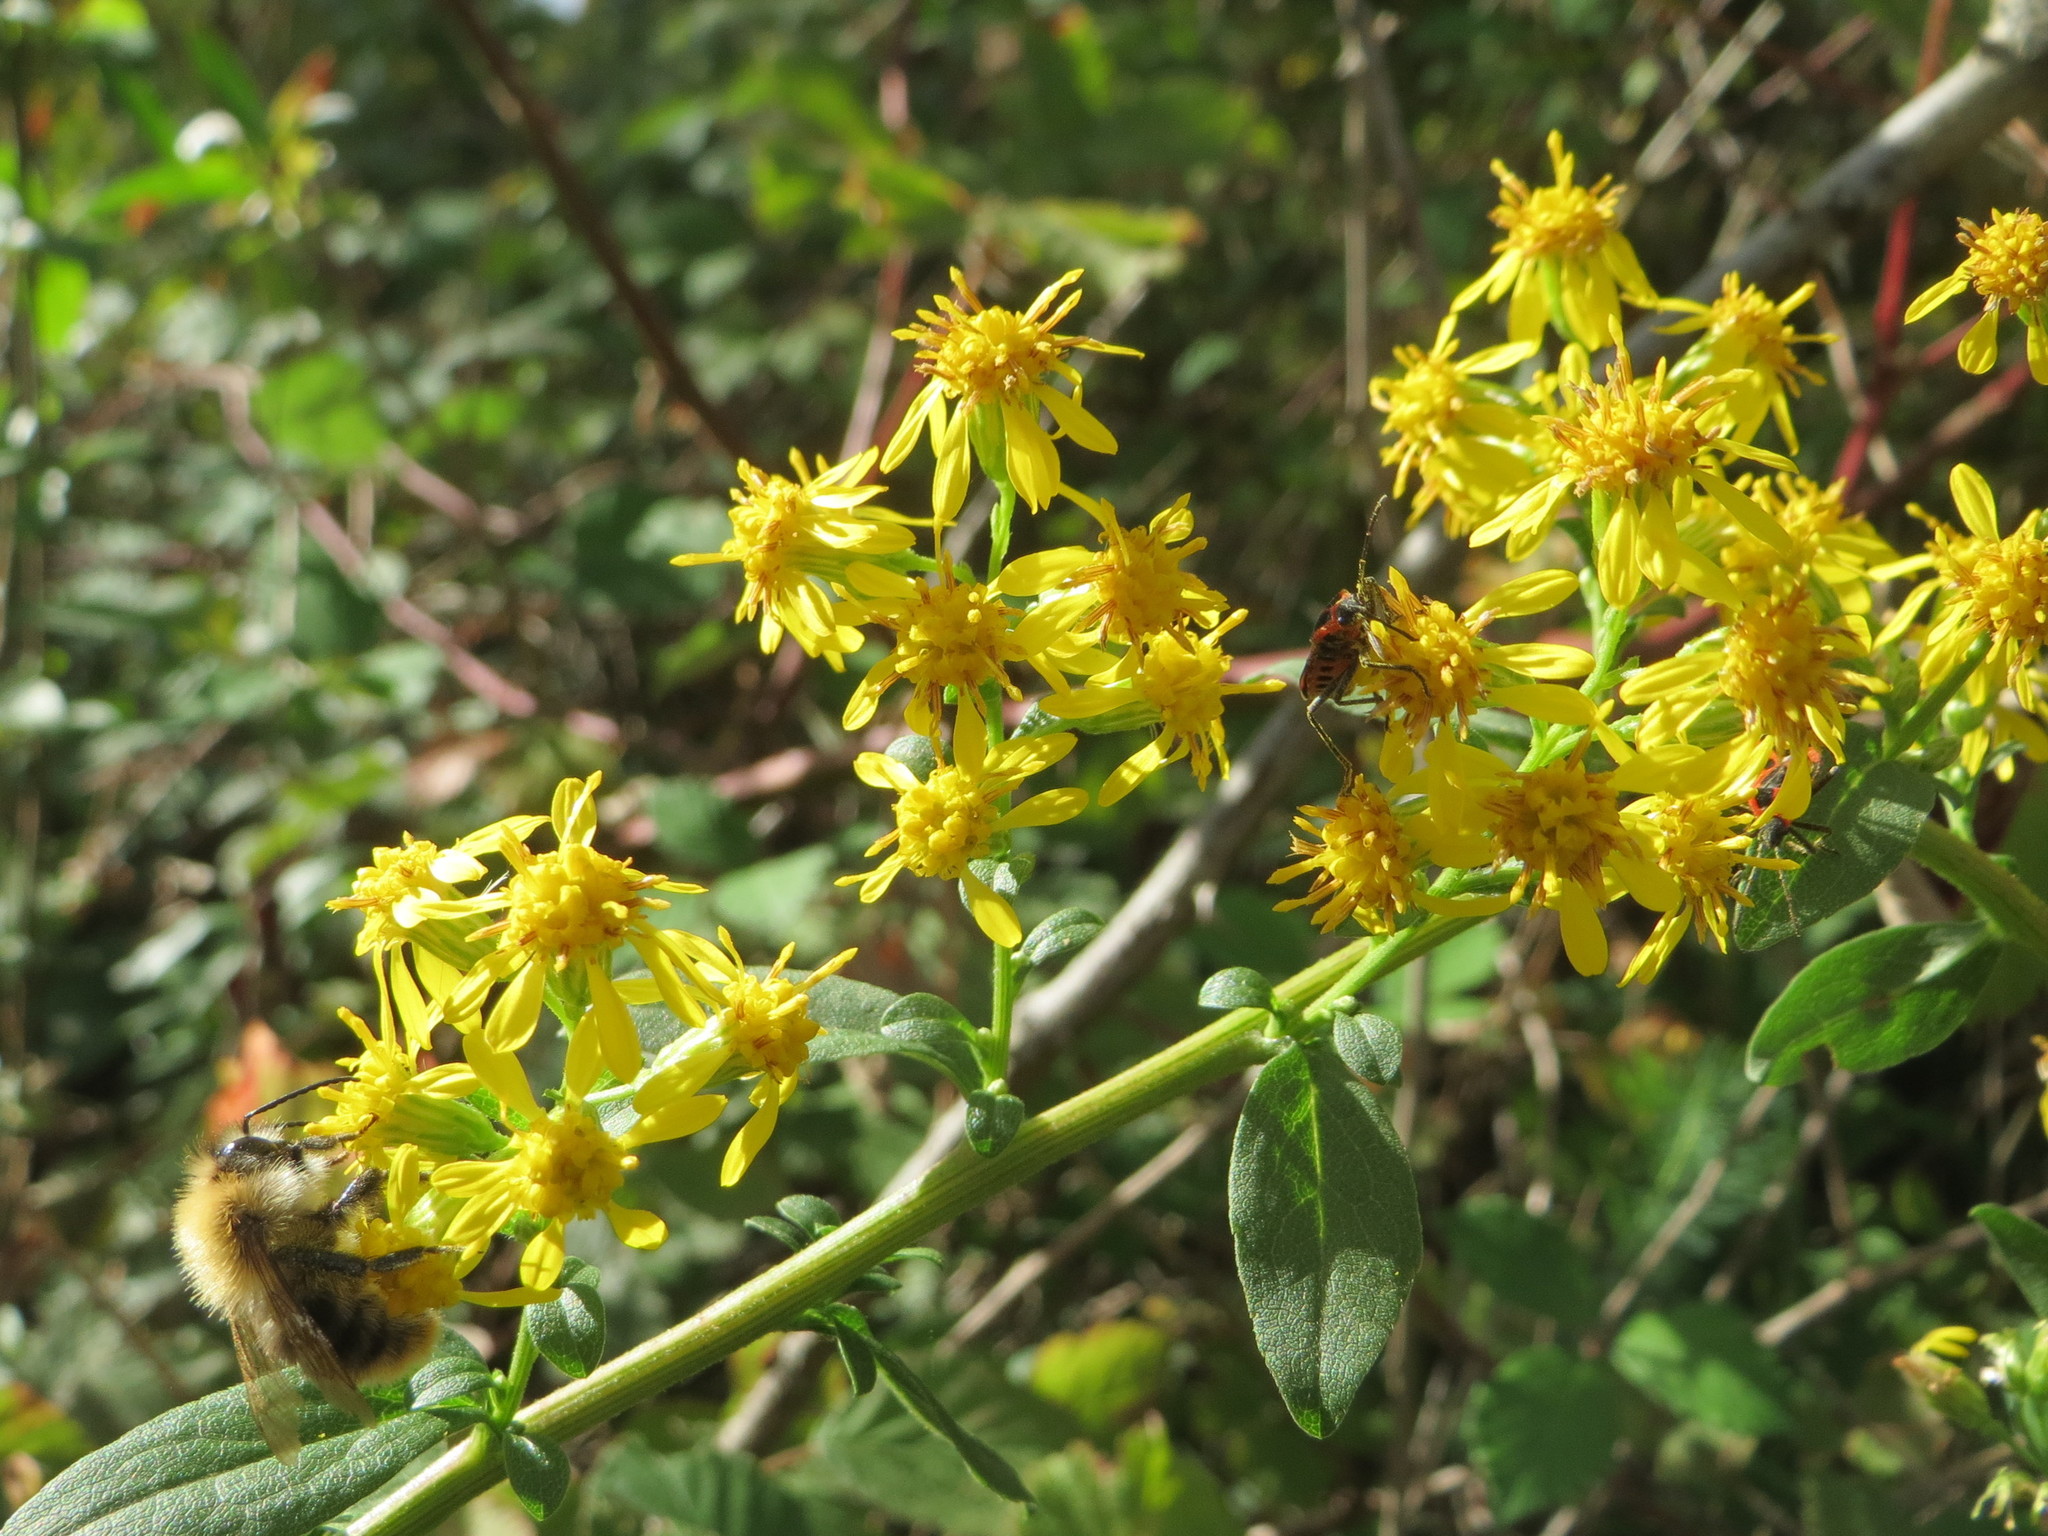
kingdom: Plantae
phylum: Tracheophyta
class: Magnoliopsida
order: Asterales
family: Asteraceae
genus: Solidago
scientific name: Solidago virgaurea
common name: Goldenrod
